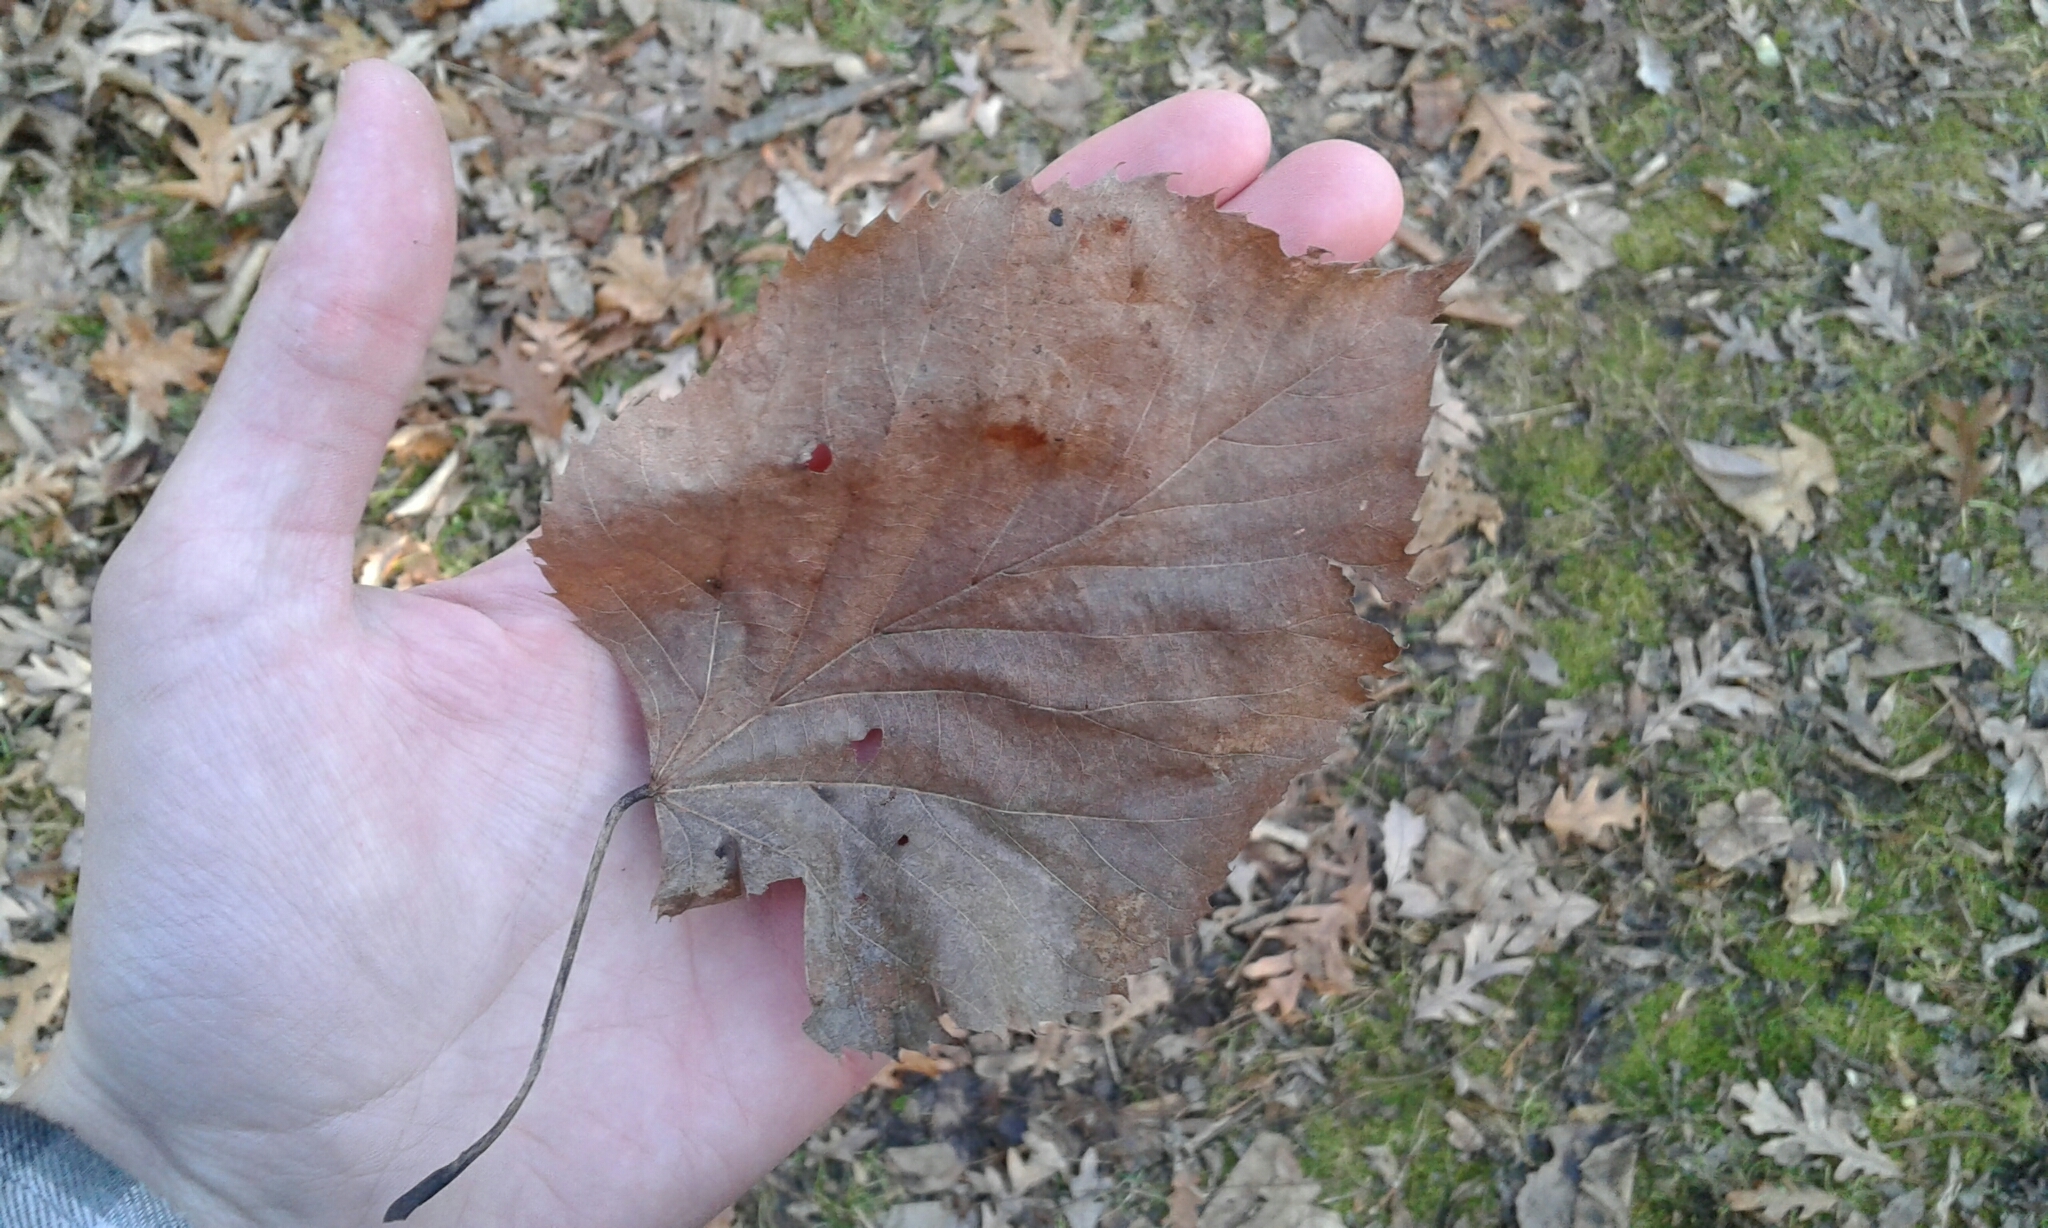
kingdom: Plantae
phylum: Tracheophyta
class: Magnoliopsida
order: Malvales
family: Malvaceae
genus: Tilia
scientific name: Tilia americana
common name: Basswood
